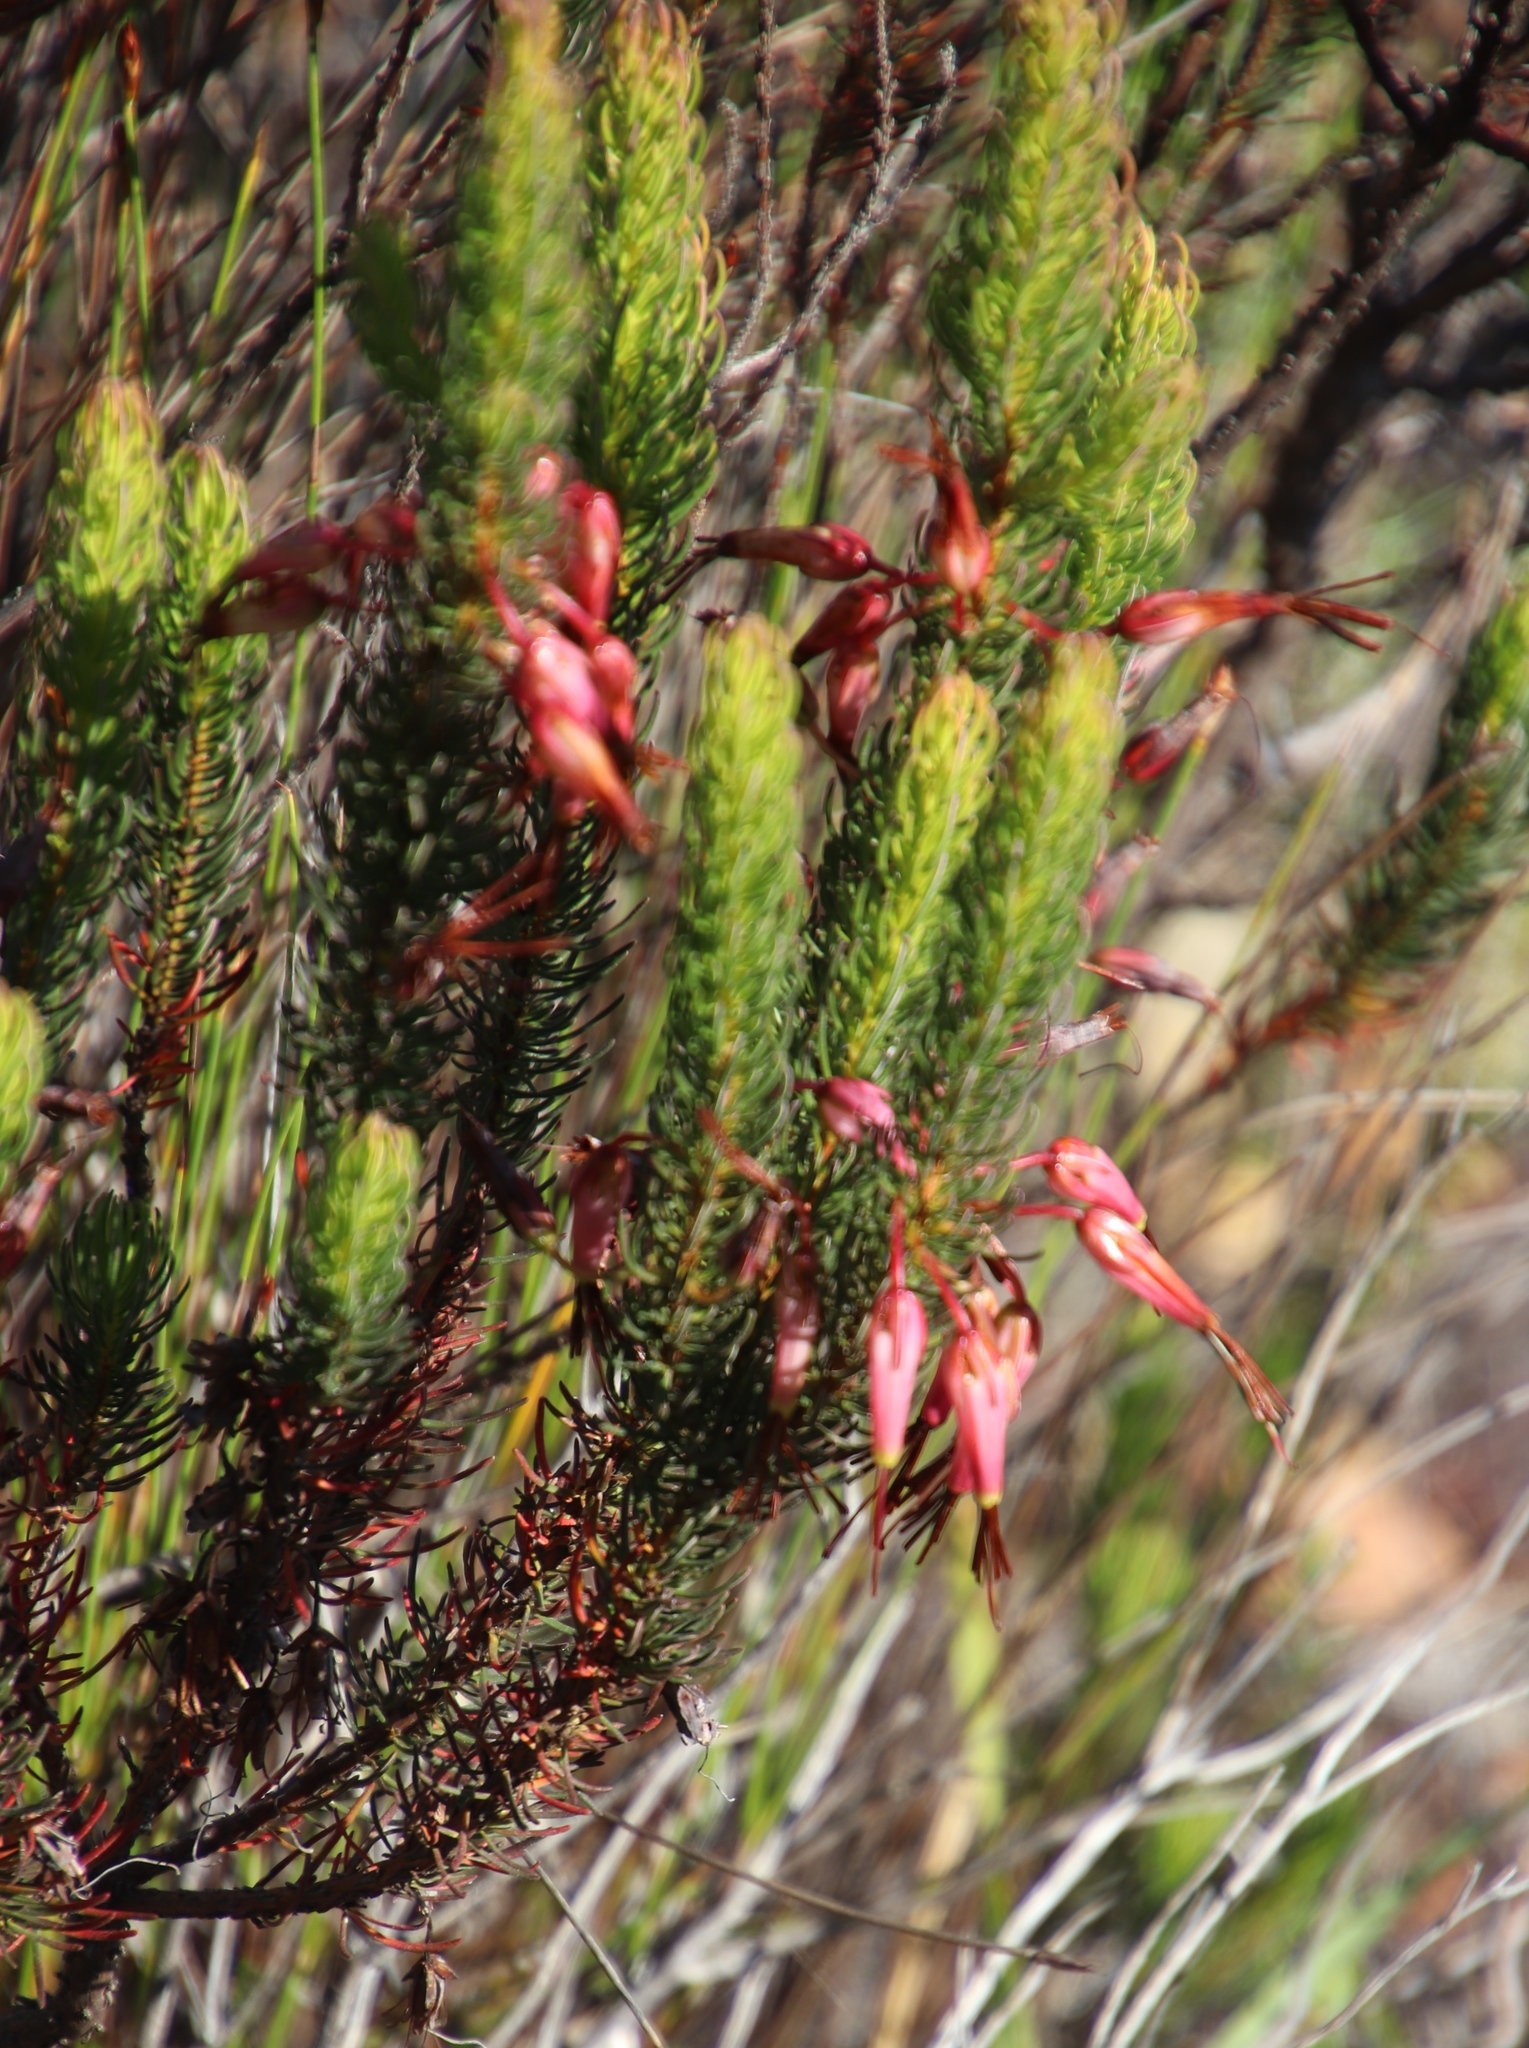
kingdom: Plantae
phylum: Tracheophyta
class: Magnoliopsida
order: Ericales
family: Ericaceae
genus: Erica
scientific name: Erica plukenetii
